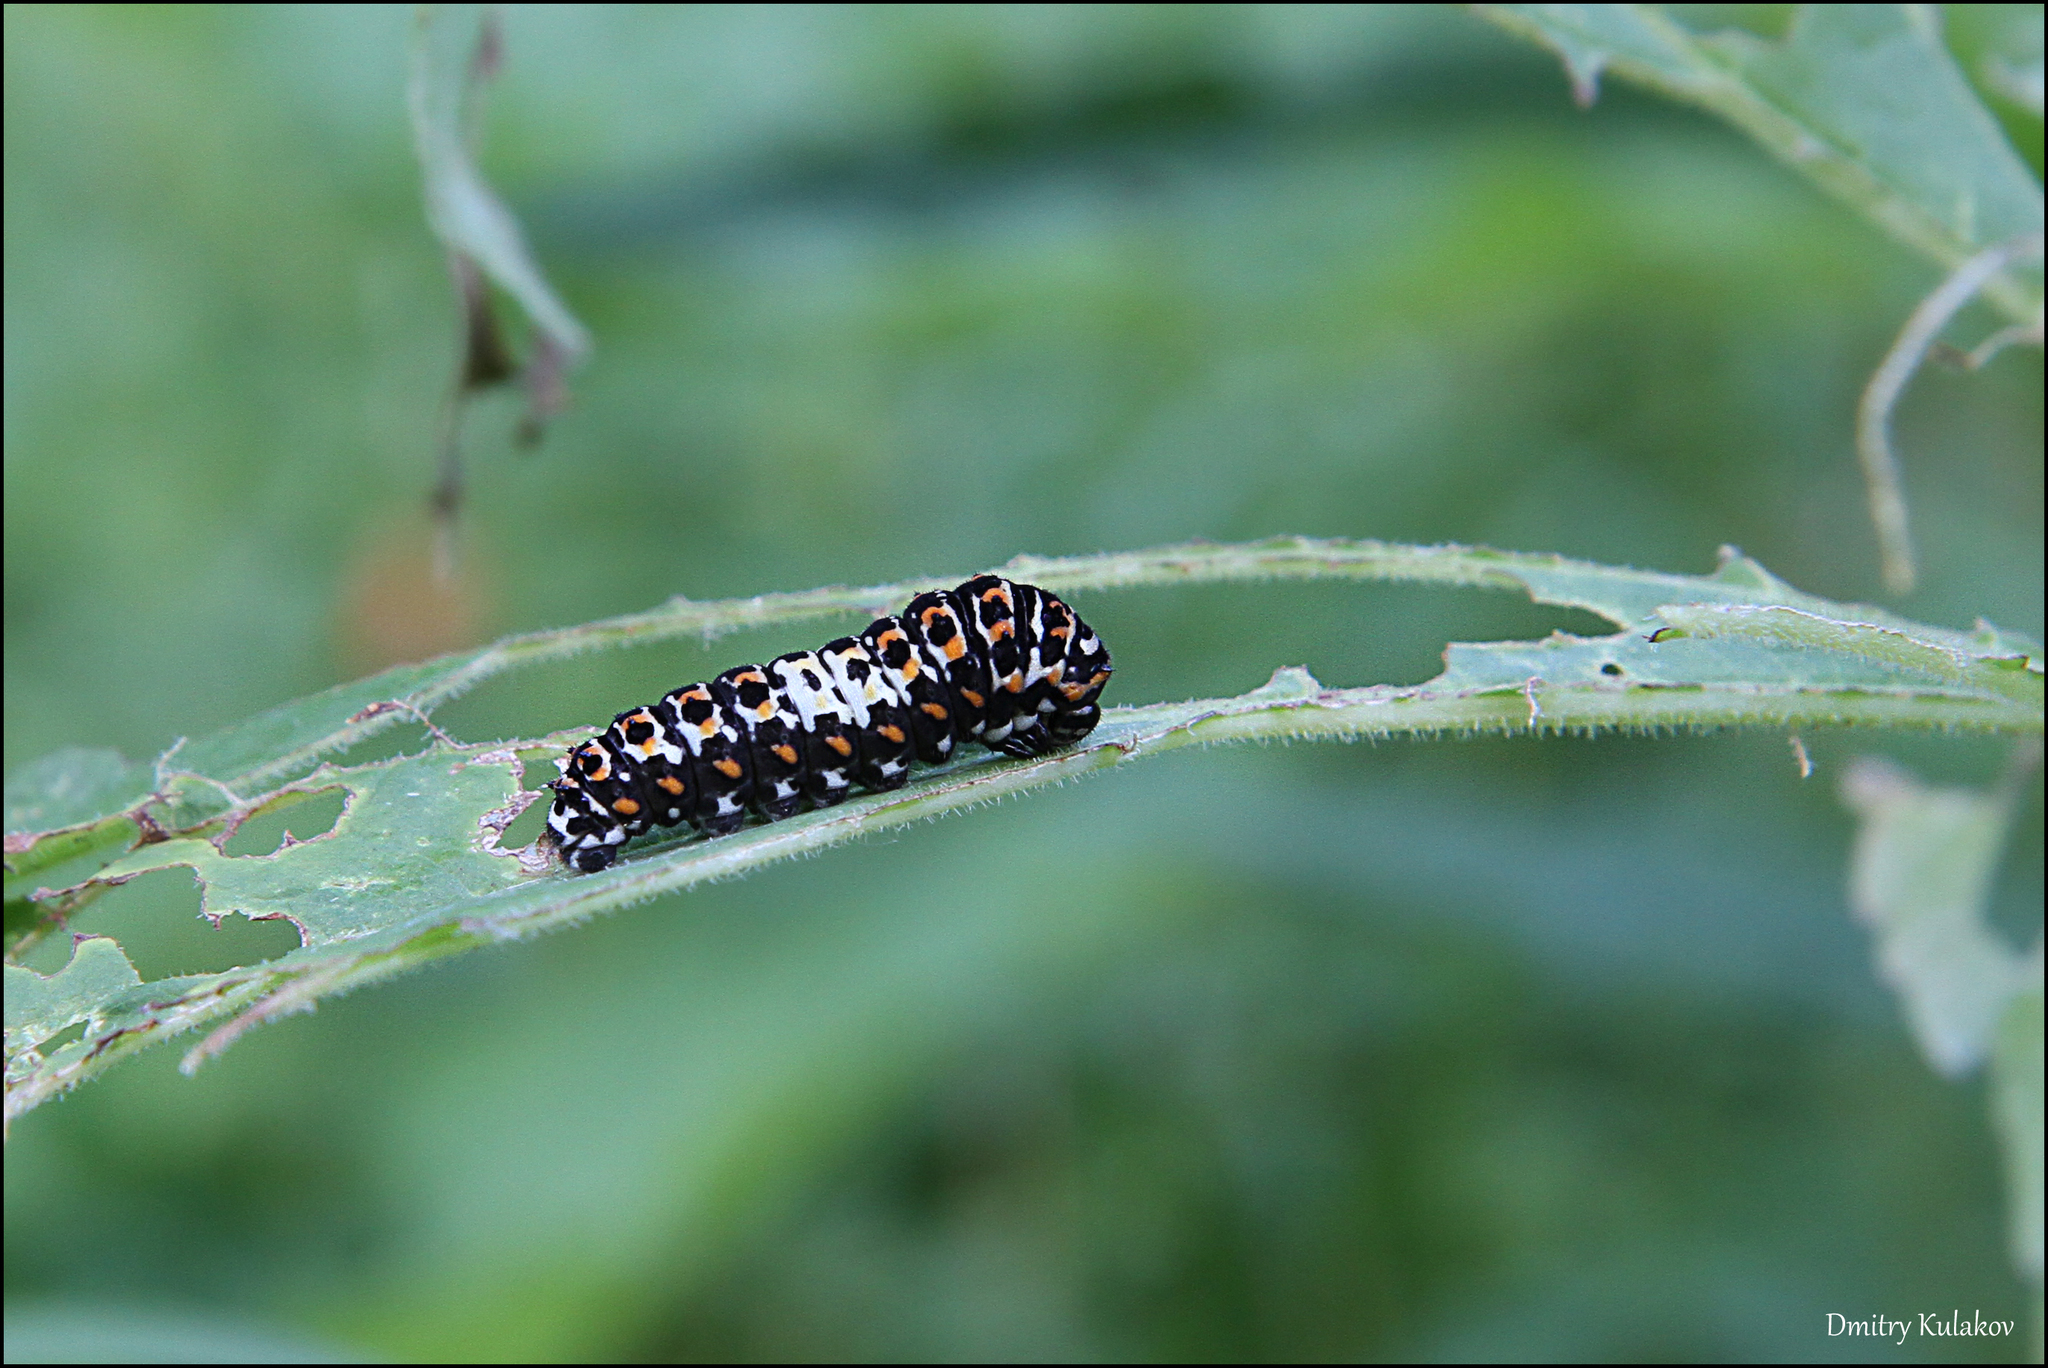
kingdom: Animalia
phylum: Arthropoda
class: Insecta
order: Lepidoptera
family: Papilionidae
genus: Papilio
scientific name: Papilio machaon
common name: Swallowtail
